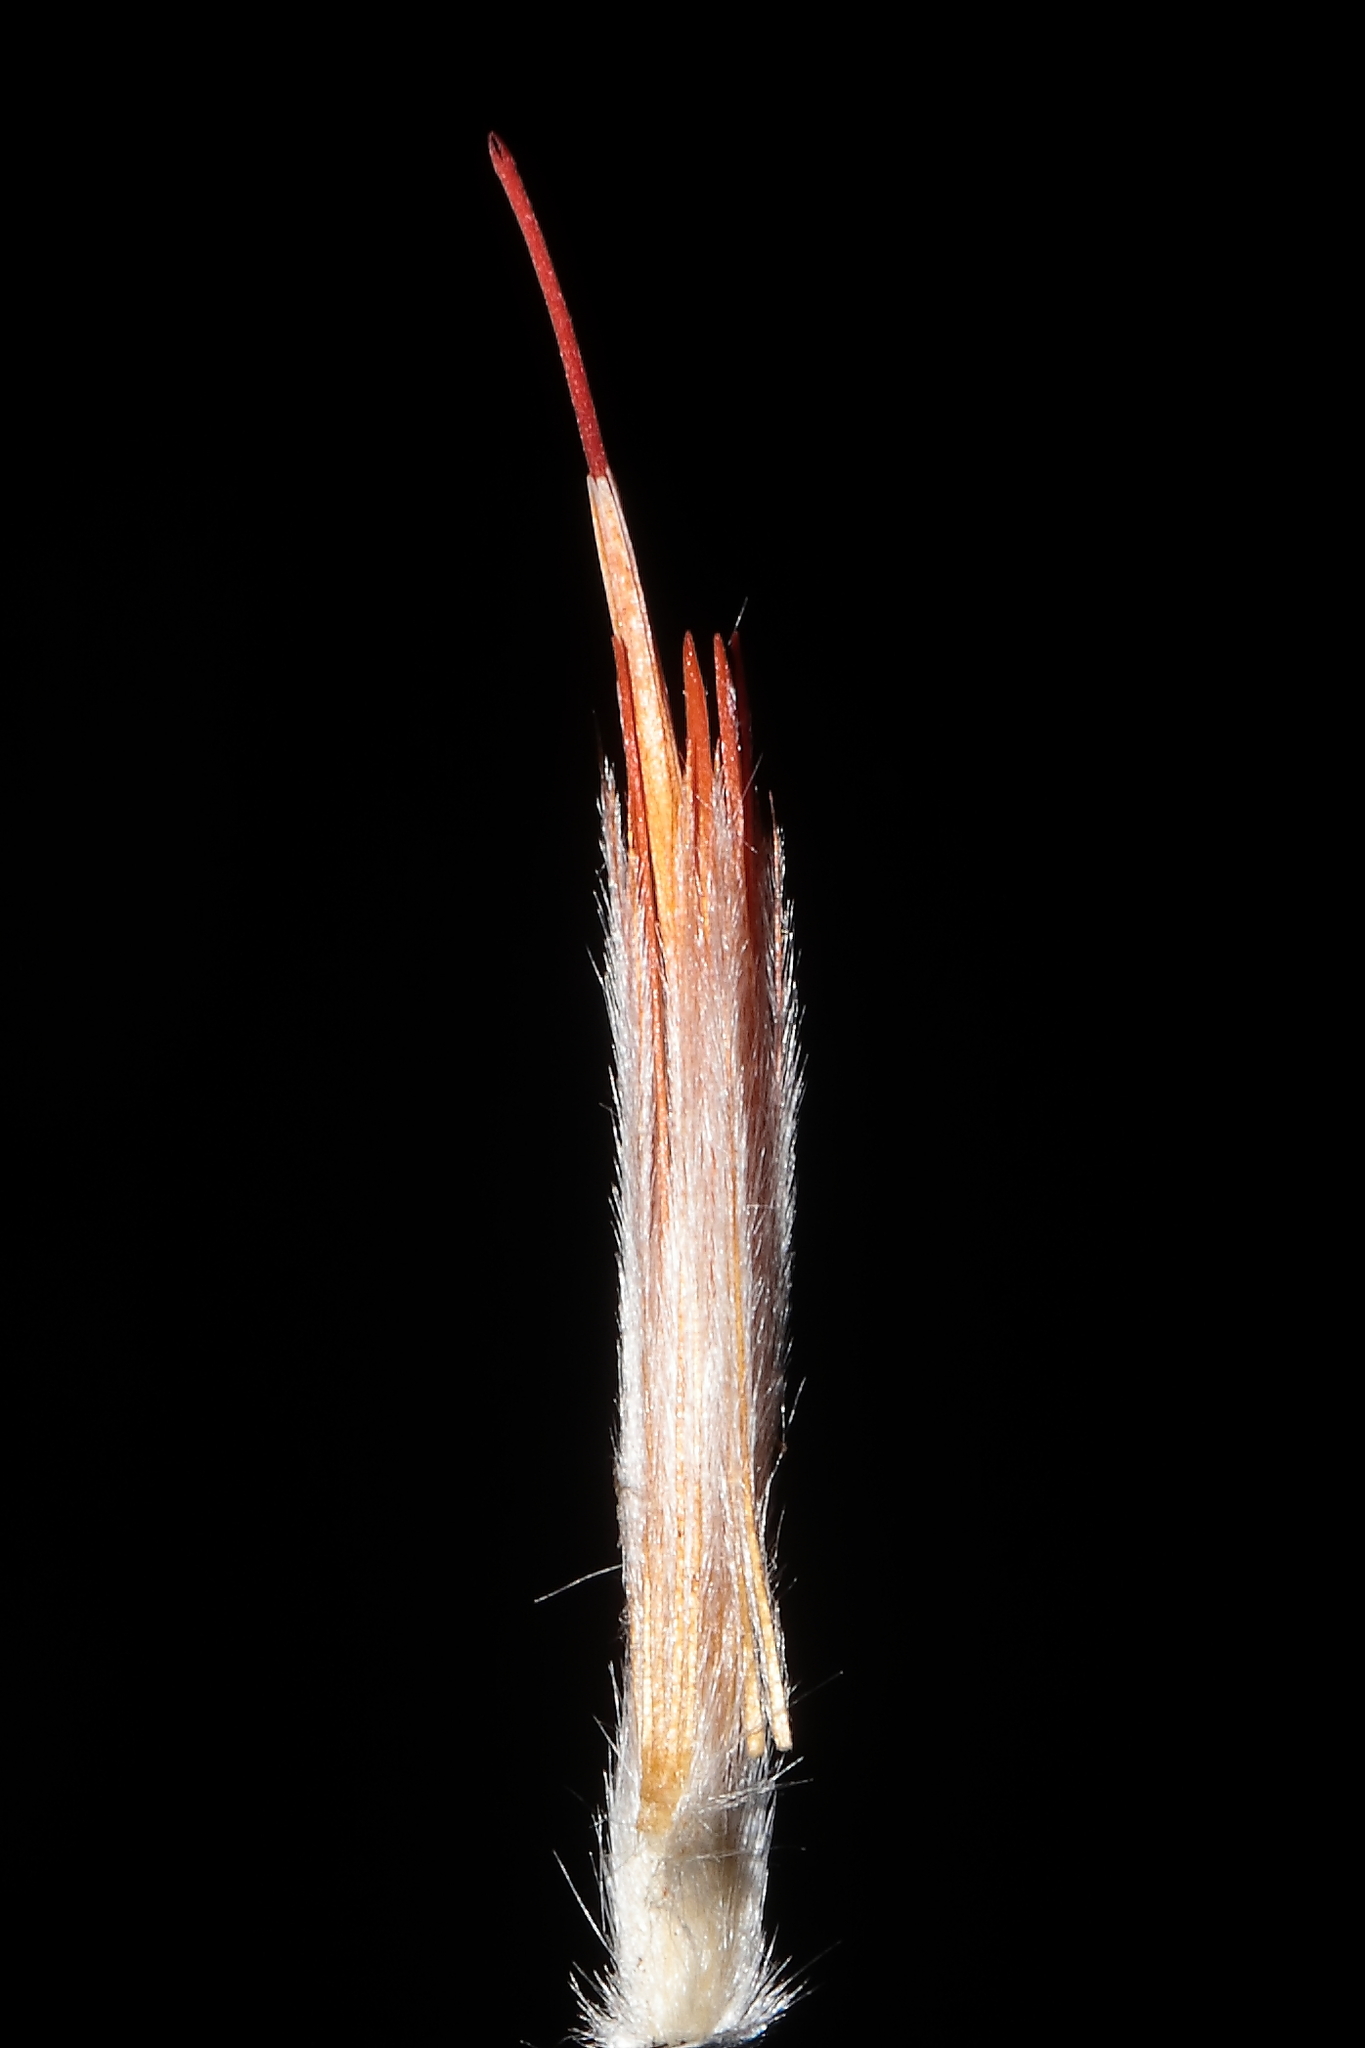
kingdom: Plantae
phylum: Tracheophyta
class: Magnoliopsida
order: Asterales
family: Asteraceae
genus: Chuquiraga
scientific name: Chuquiraga spinosa
